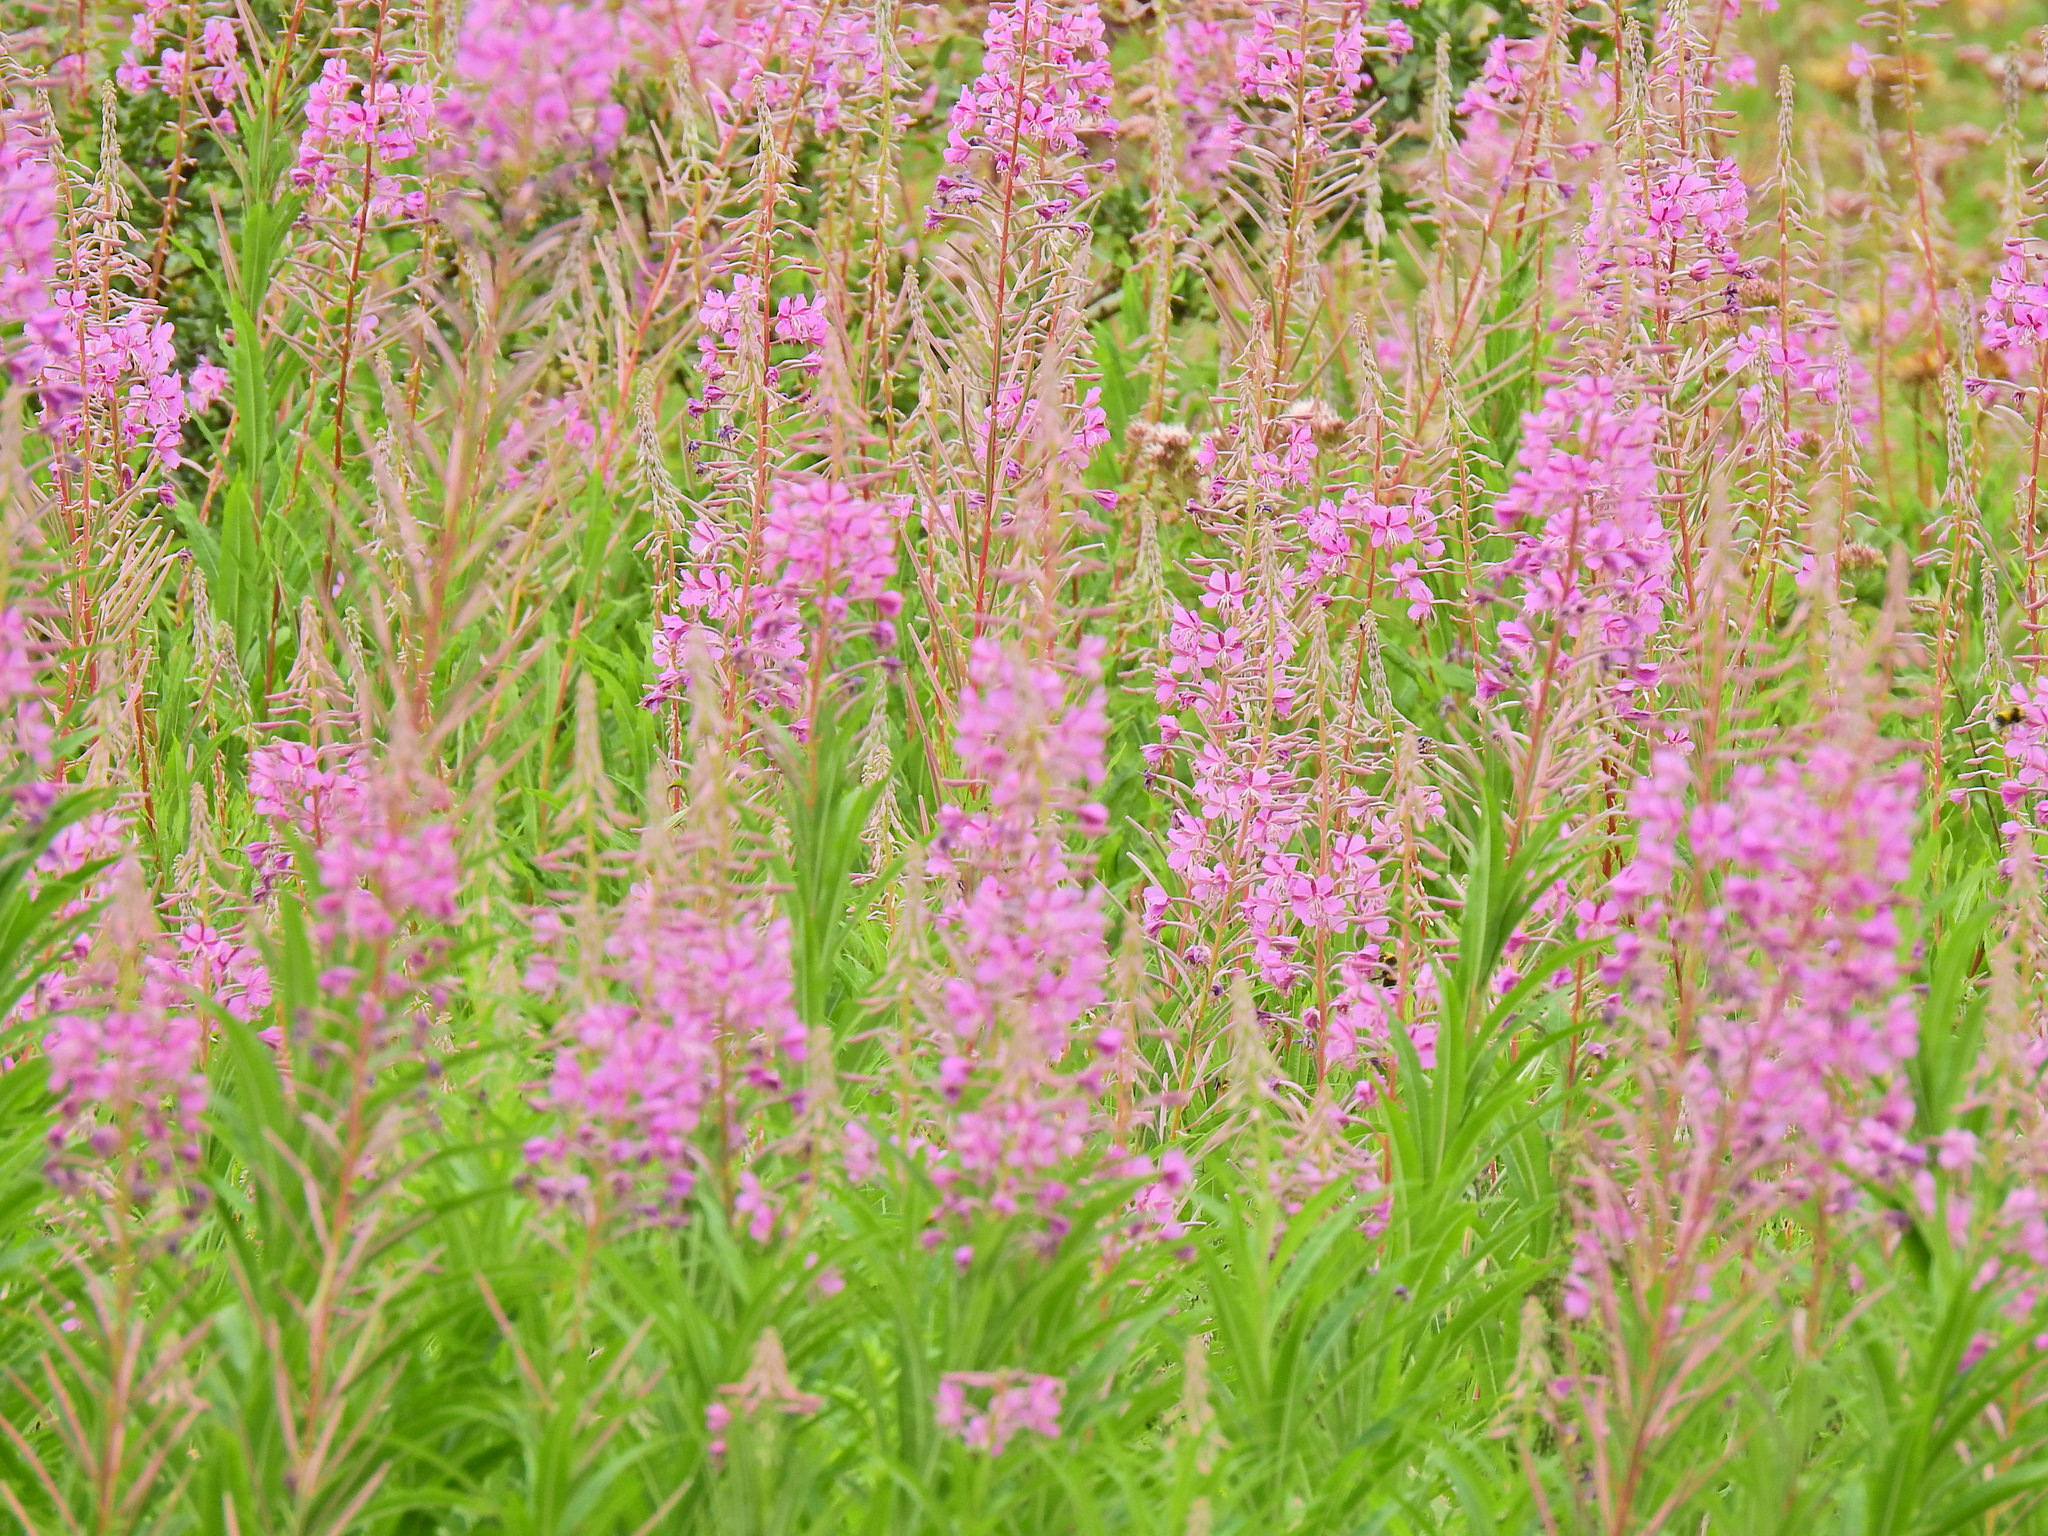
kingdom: Plantae
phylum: Tracheophyta
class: Magnoliopsida
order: Myrtales
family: Onagraceae
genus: Chamaenerion
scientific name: Chamaenerion angustifolium
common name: Fireweed
